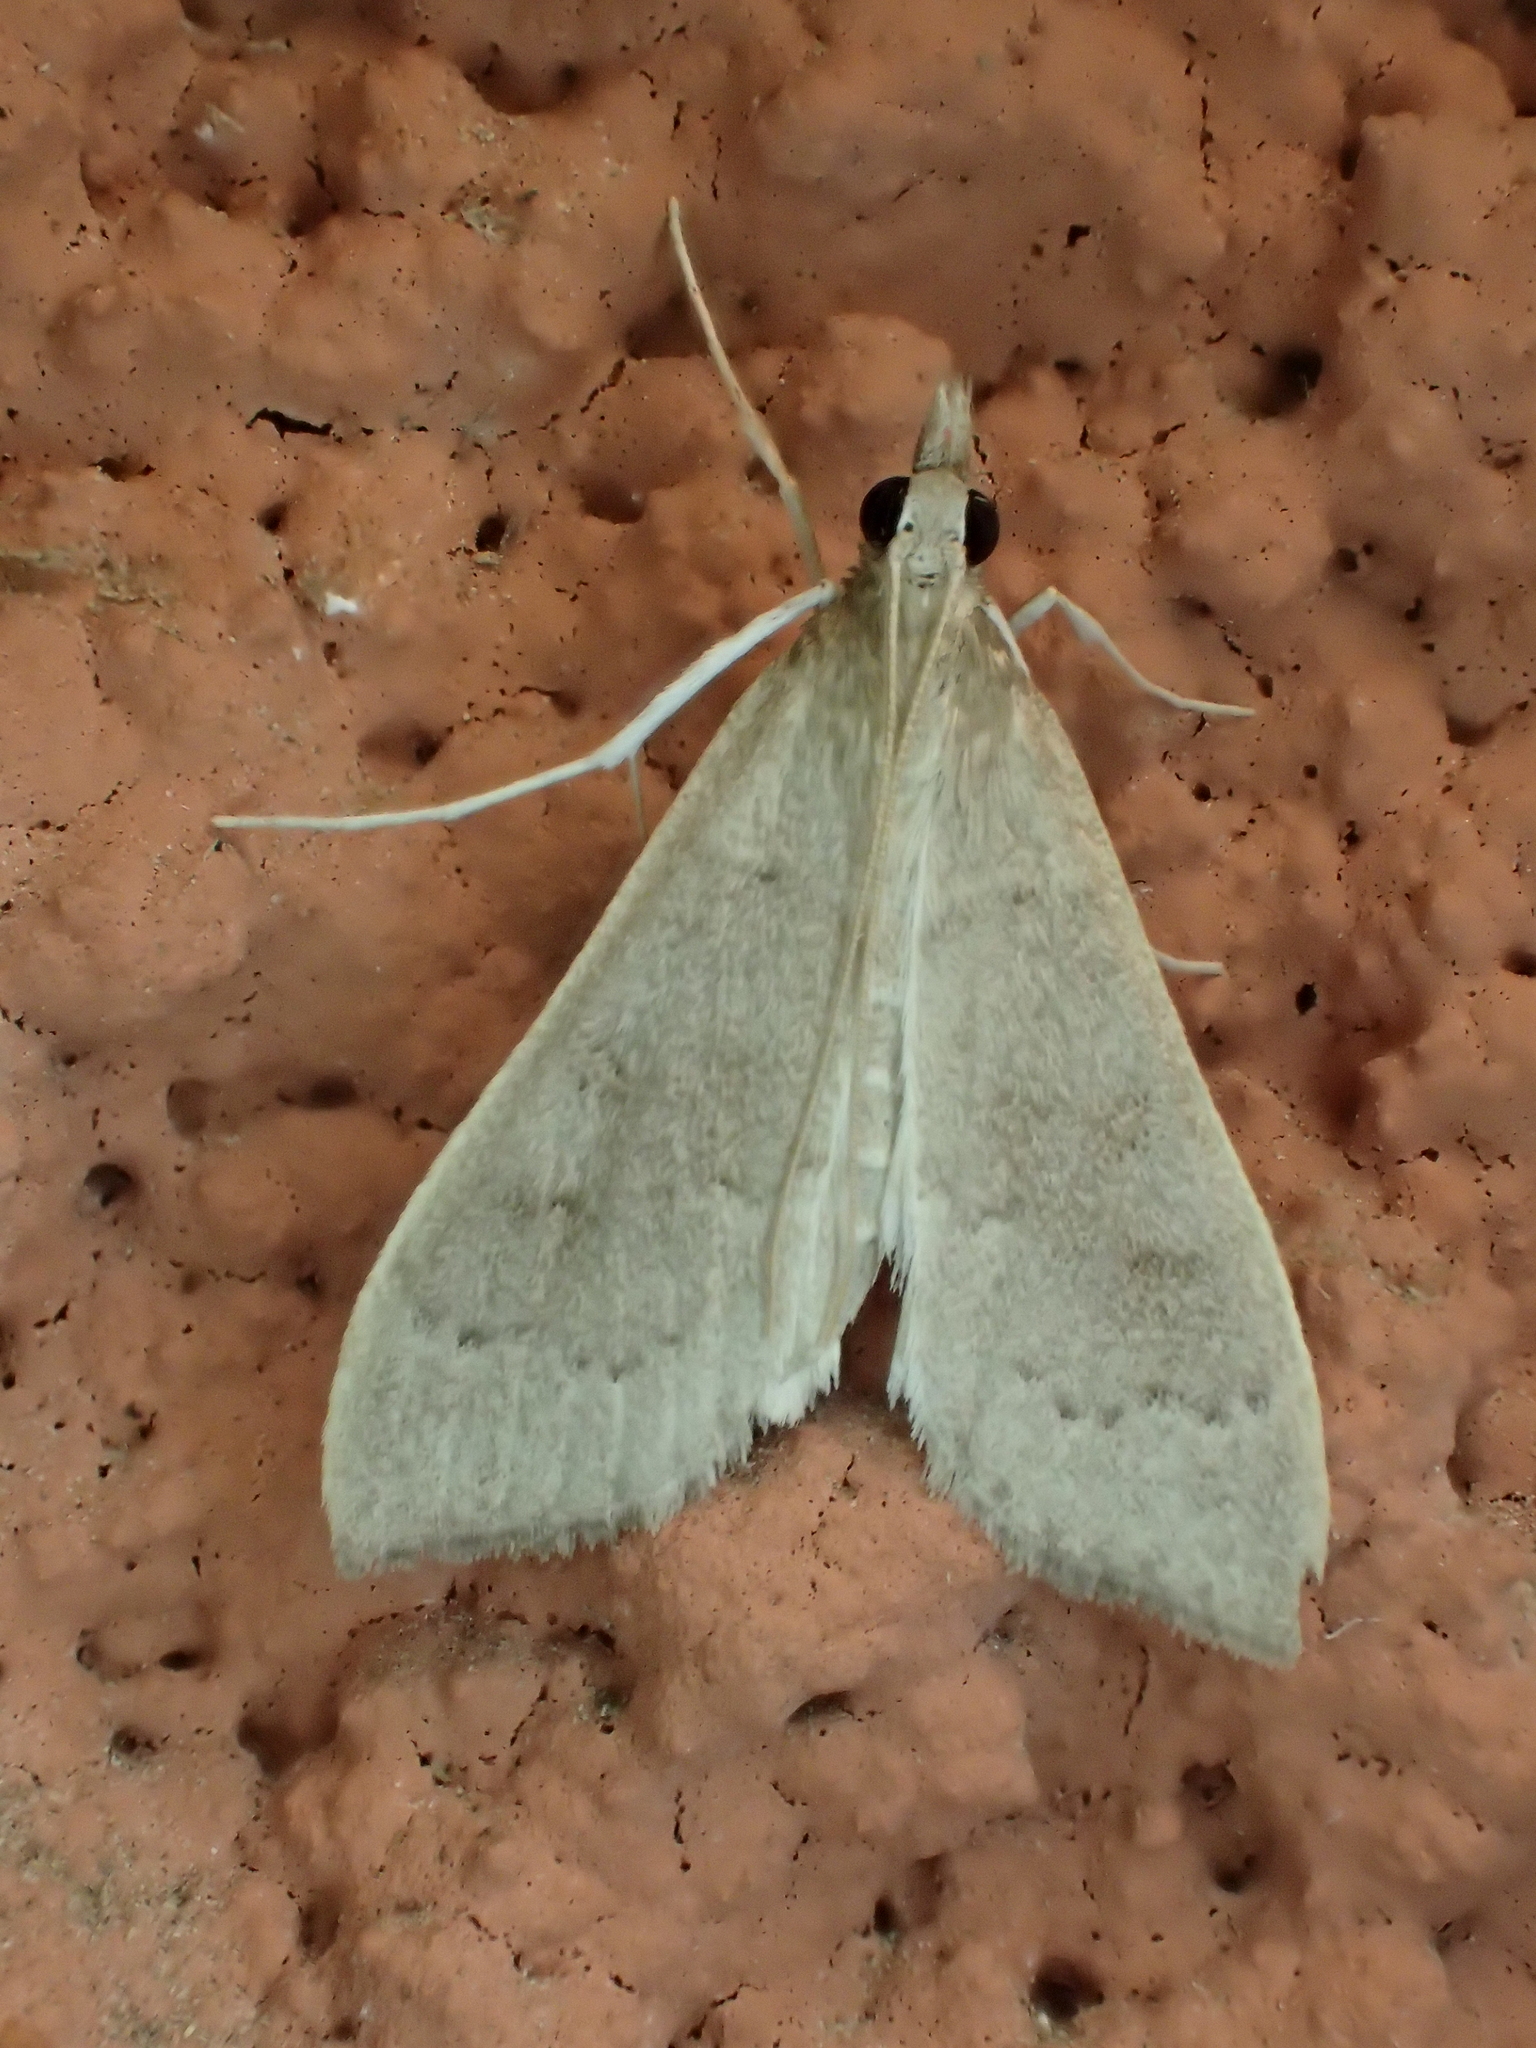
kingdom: Animalia
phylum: Arthropoda
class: Insecta
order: Lepidoptera
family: Crambidae
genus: Mecyna
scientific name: Mecyna asinalis
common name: Coastal pearl
